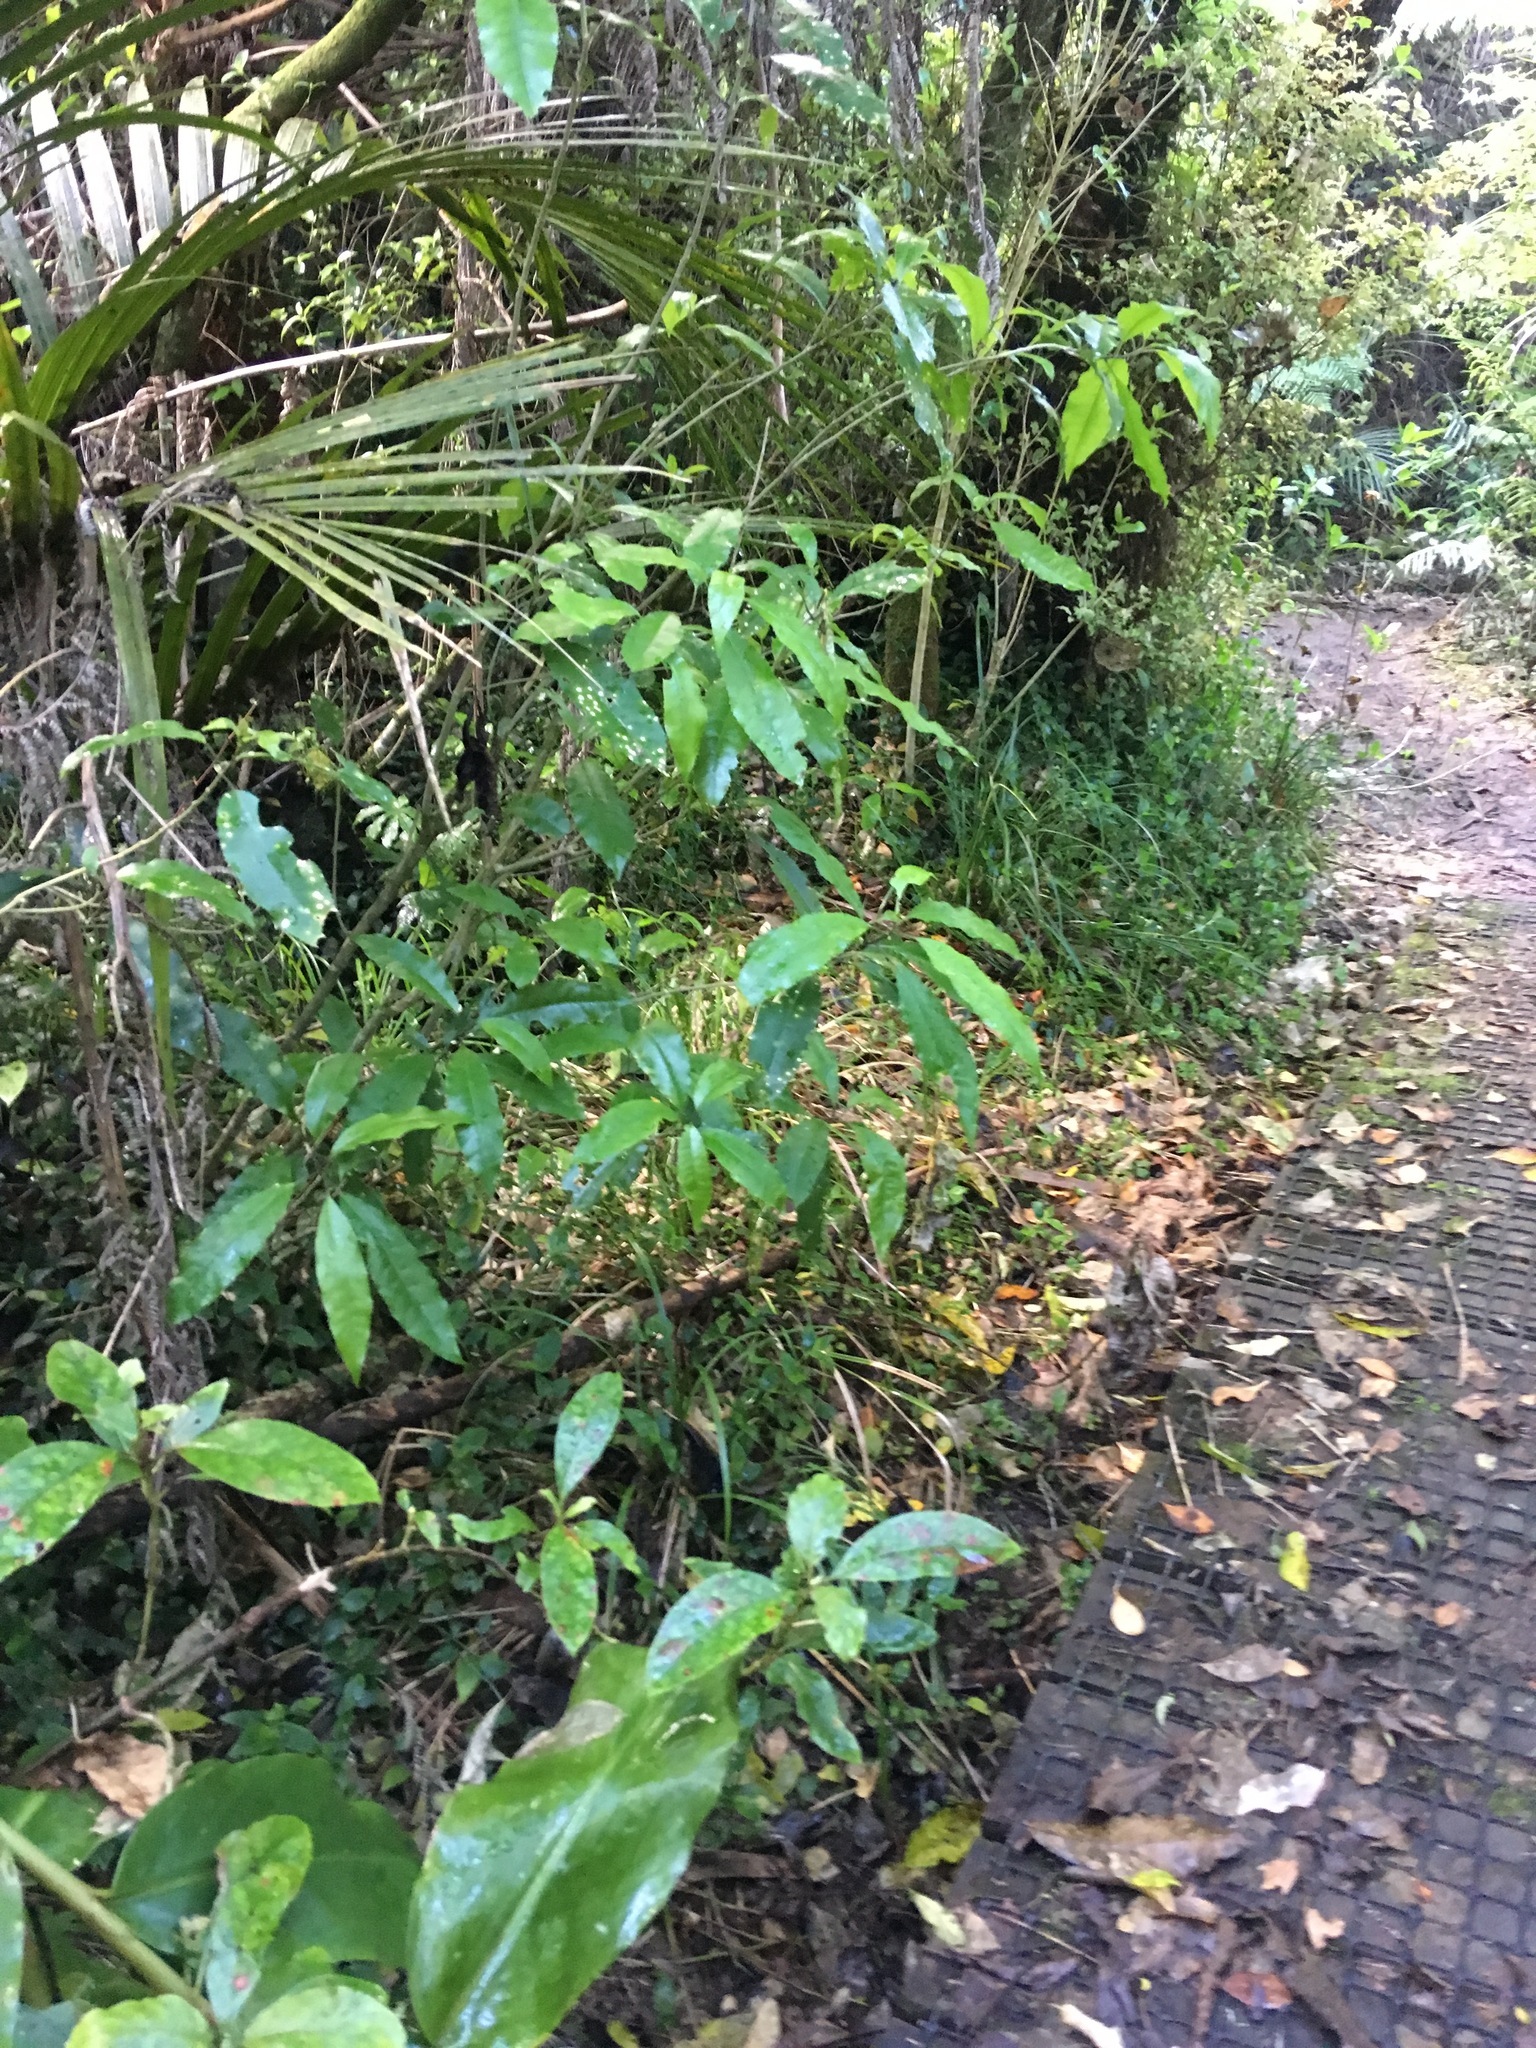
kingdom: Plantae
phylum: Tracheophyta
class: Magnoliopsida
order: Malpighiales
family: Violaceae
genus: Melicytus
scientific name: Melicytus ramiflorus
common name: Mahoe
